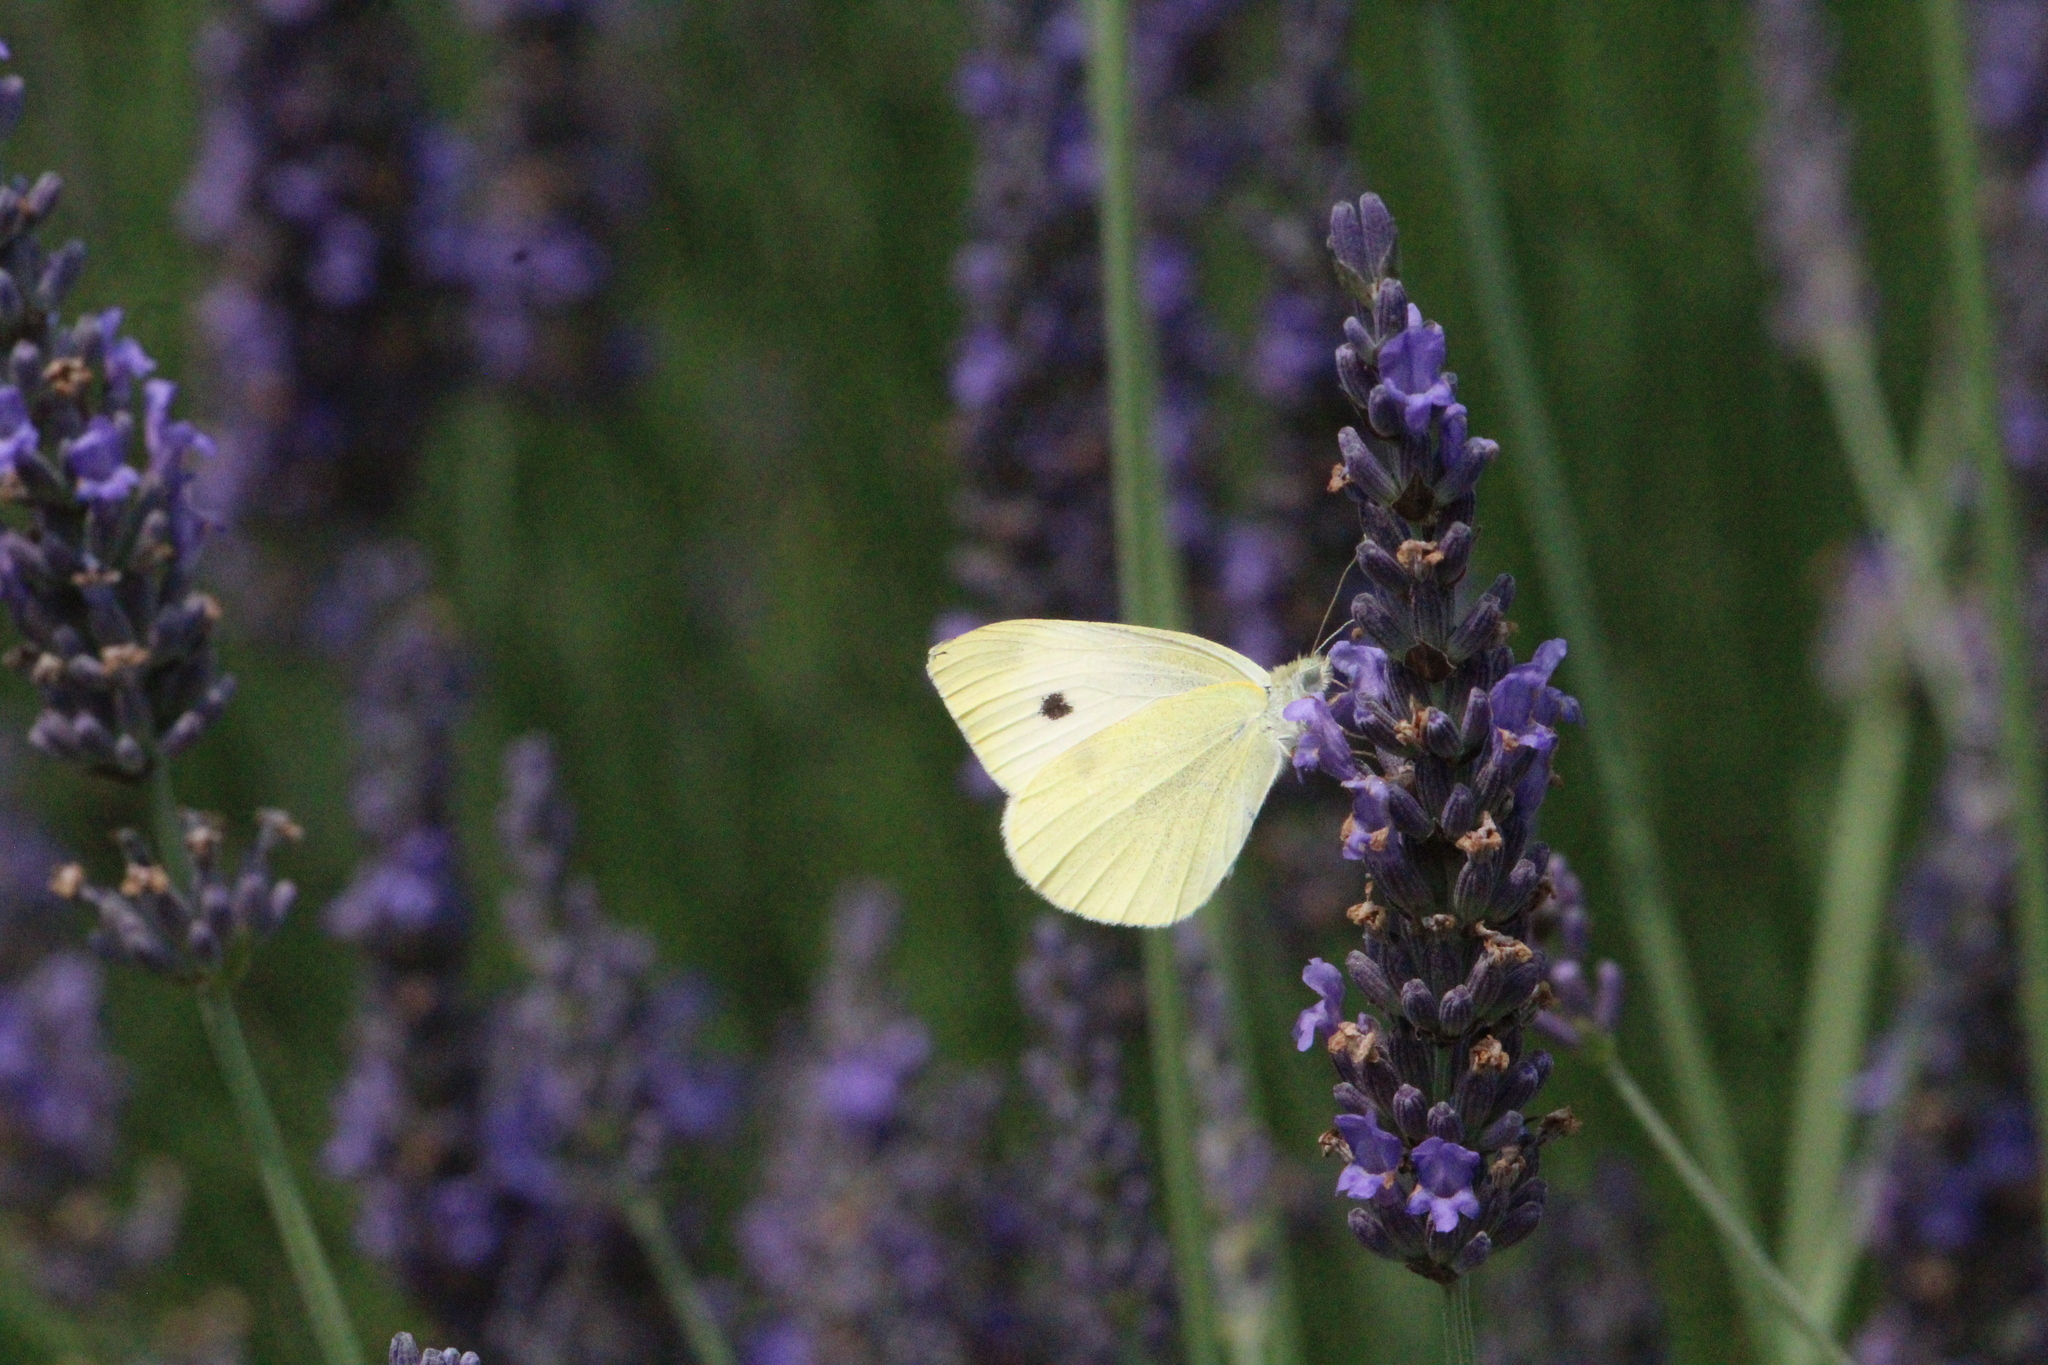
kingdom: Animalia
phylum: Arthropoda
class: Insecta
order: Lepidoptera
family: Pieridae
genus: Pieris
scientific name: Pieris rapae
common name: Small white
